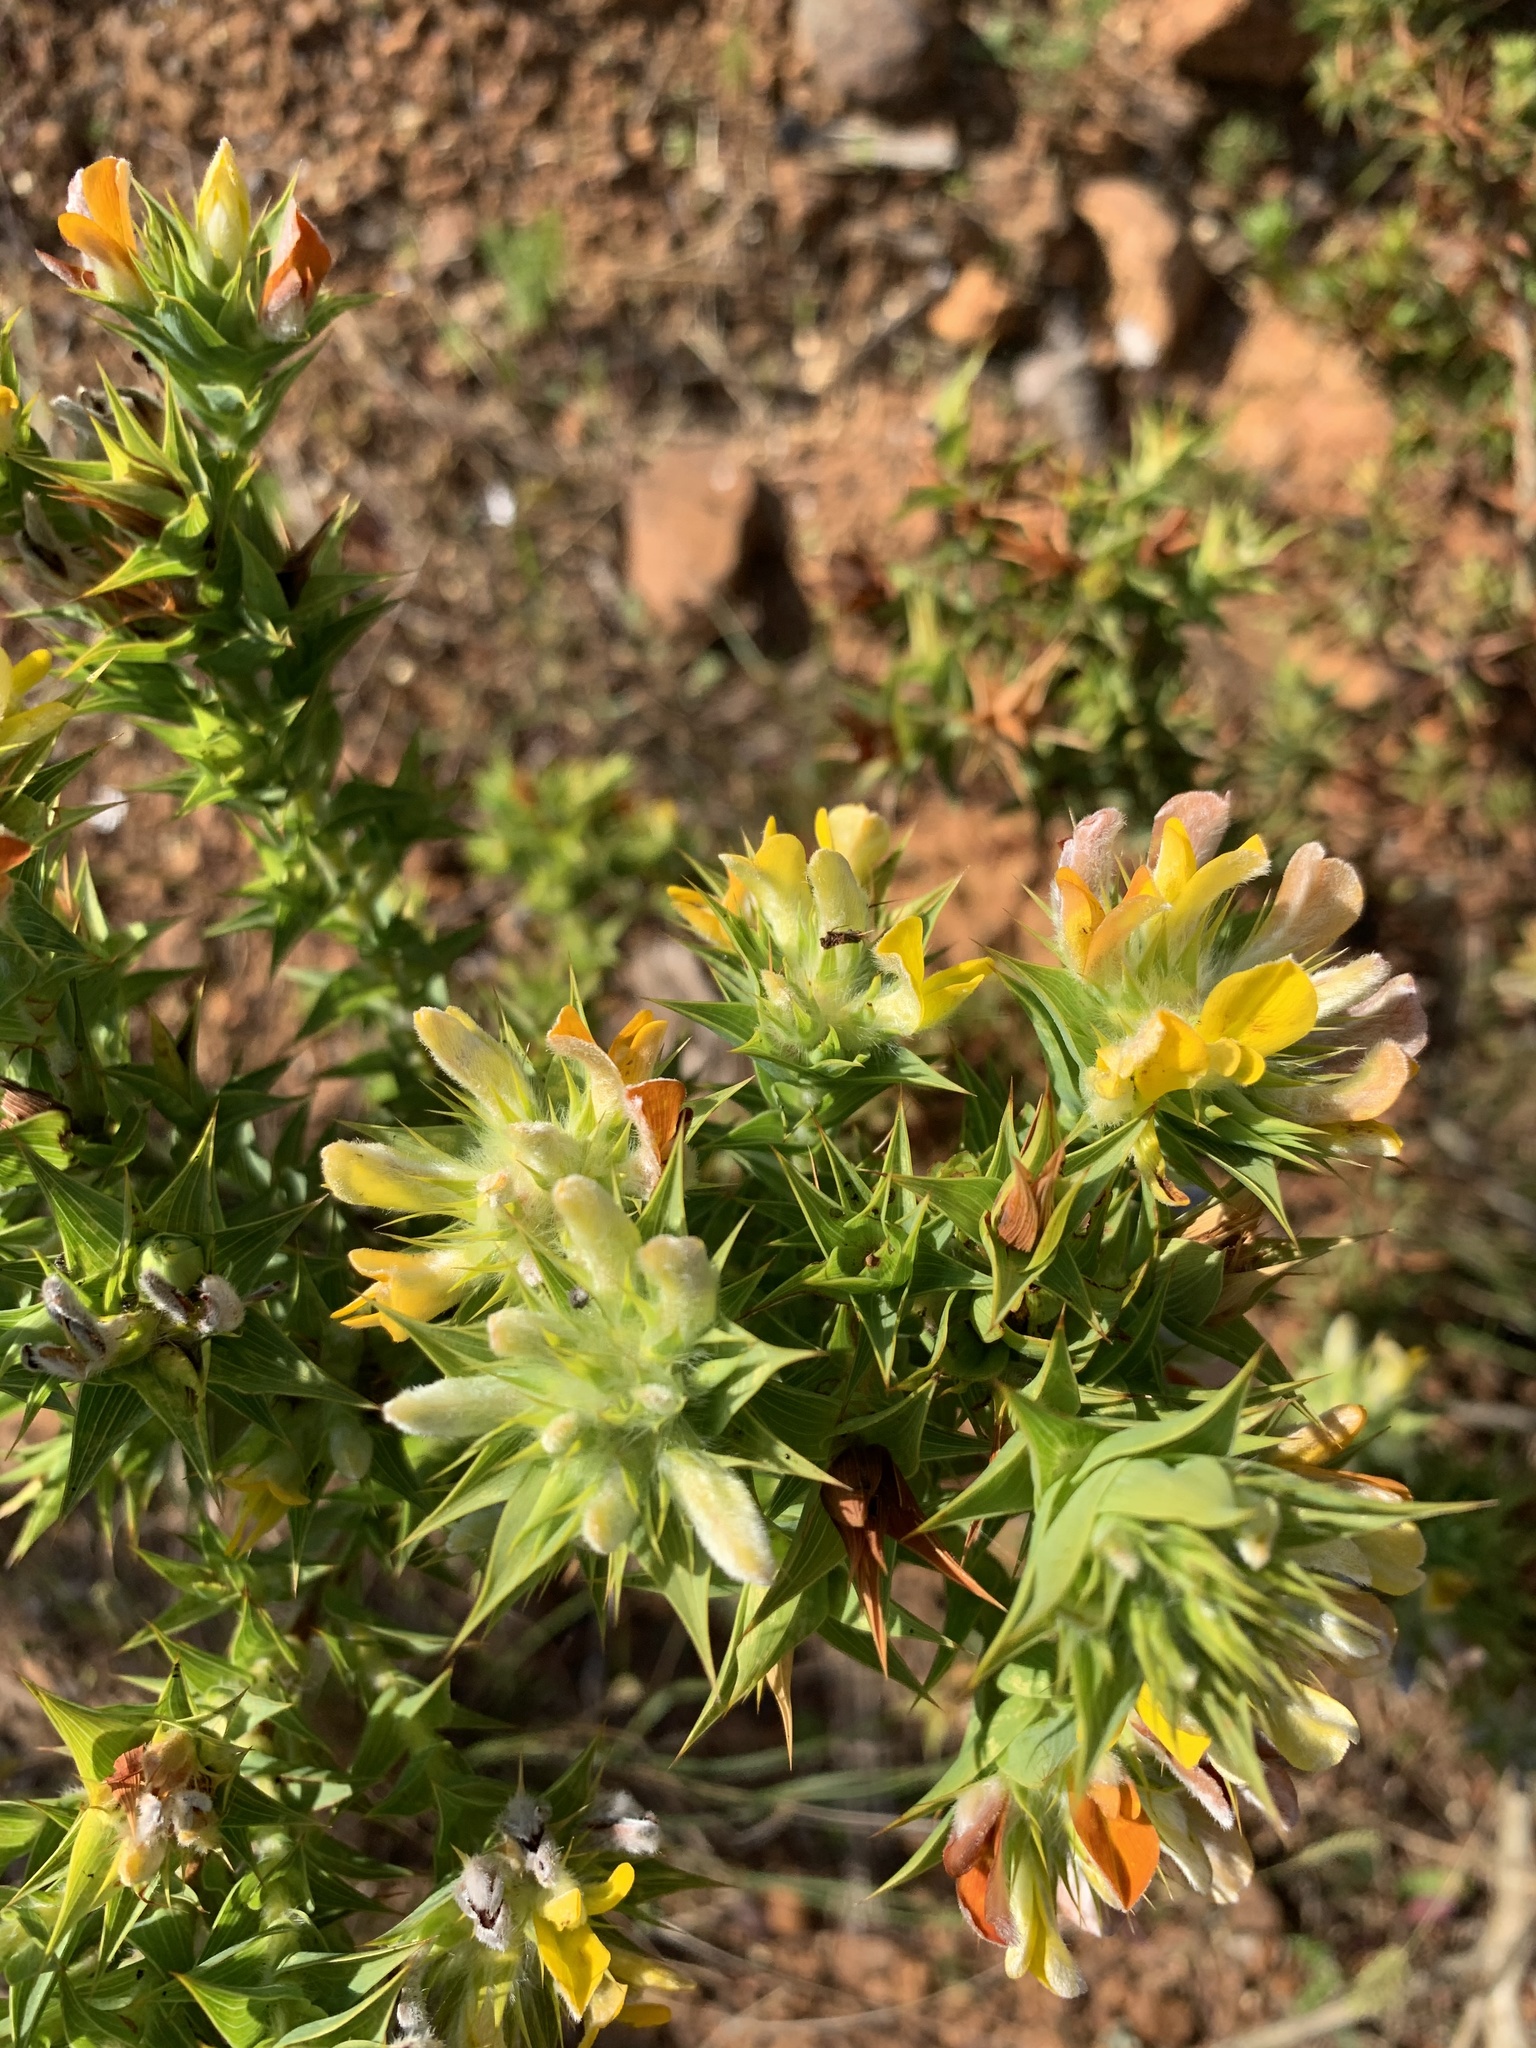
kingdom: Plantae
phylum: Tracheophyta
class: Magnoliopsida
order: Fabales
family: Fabaceae
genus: Aspalathus
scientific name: Aspalathus cordata
